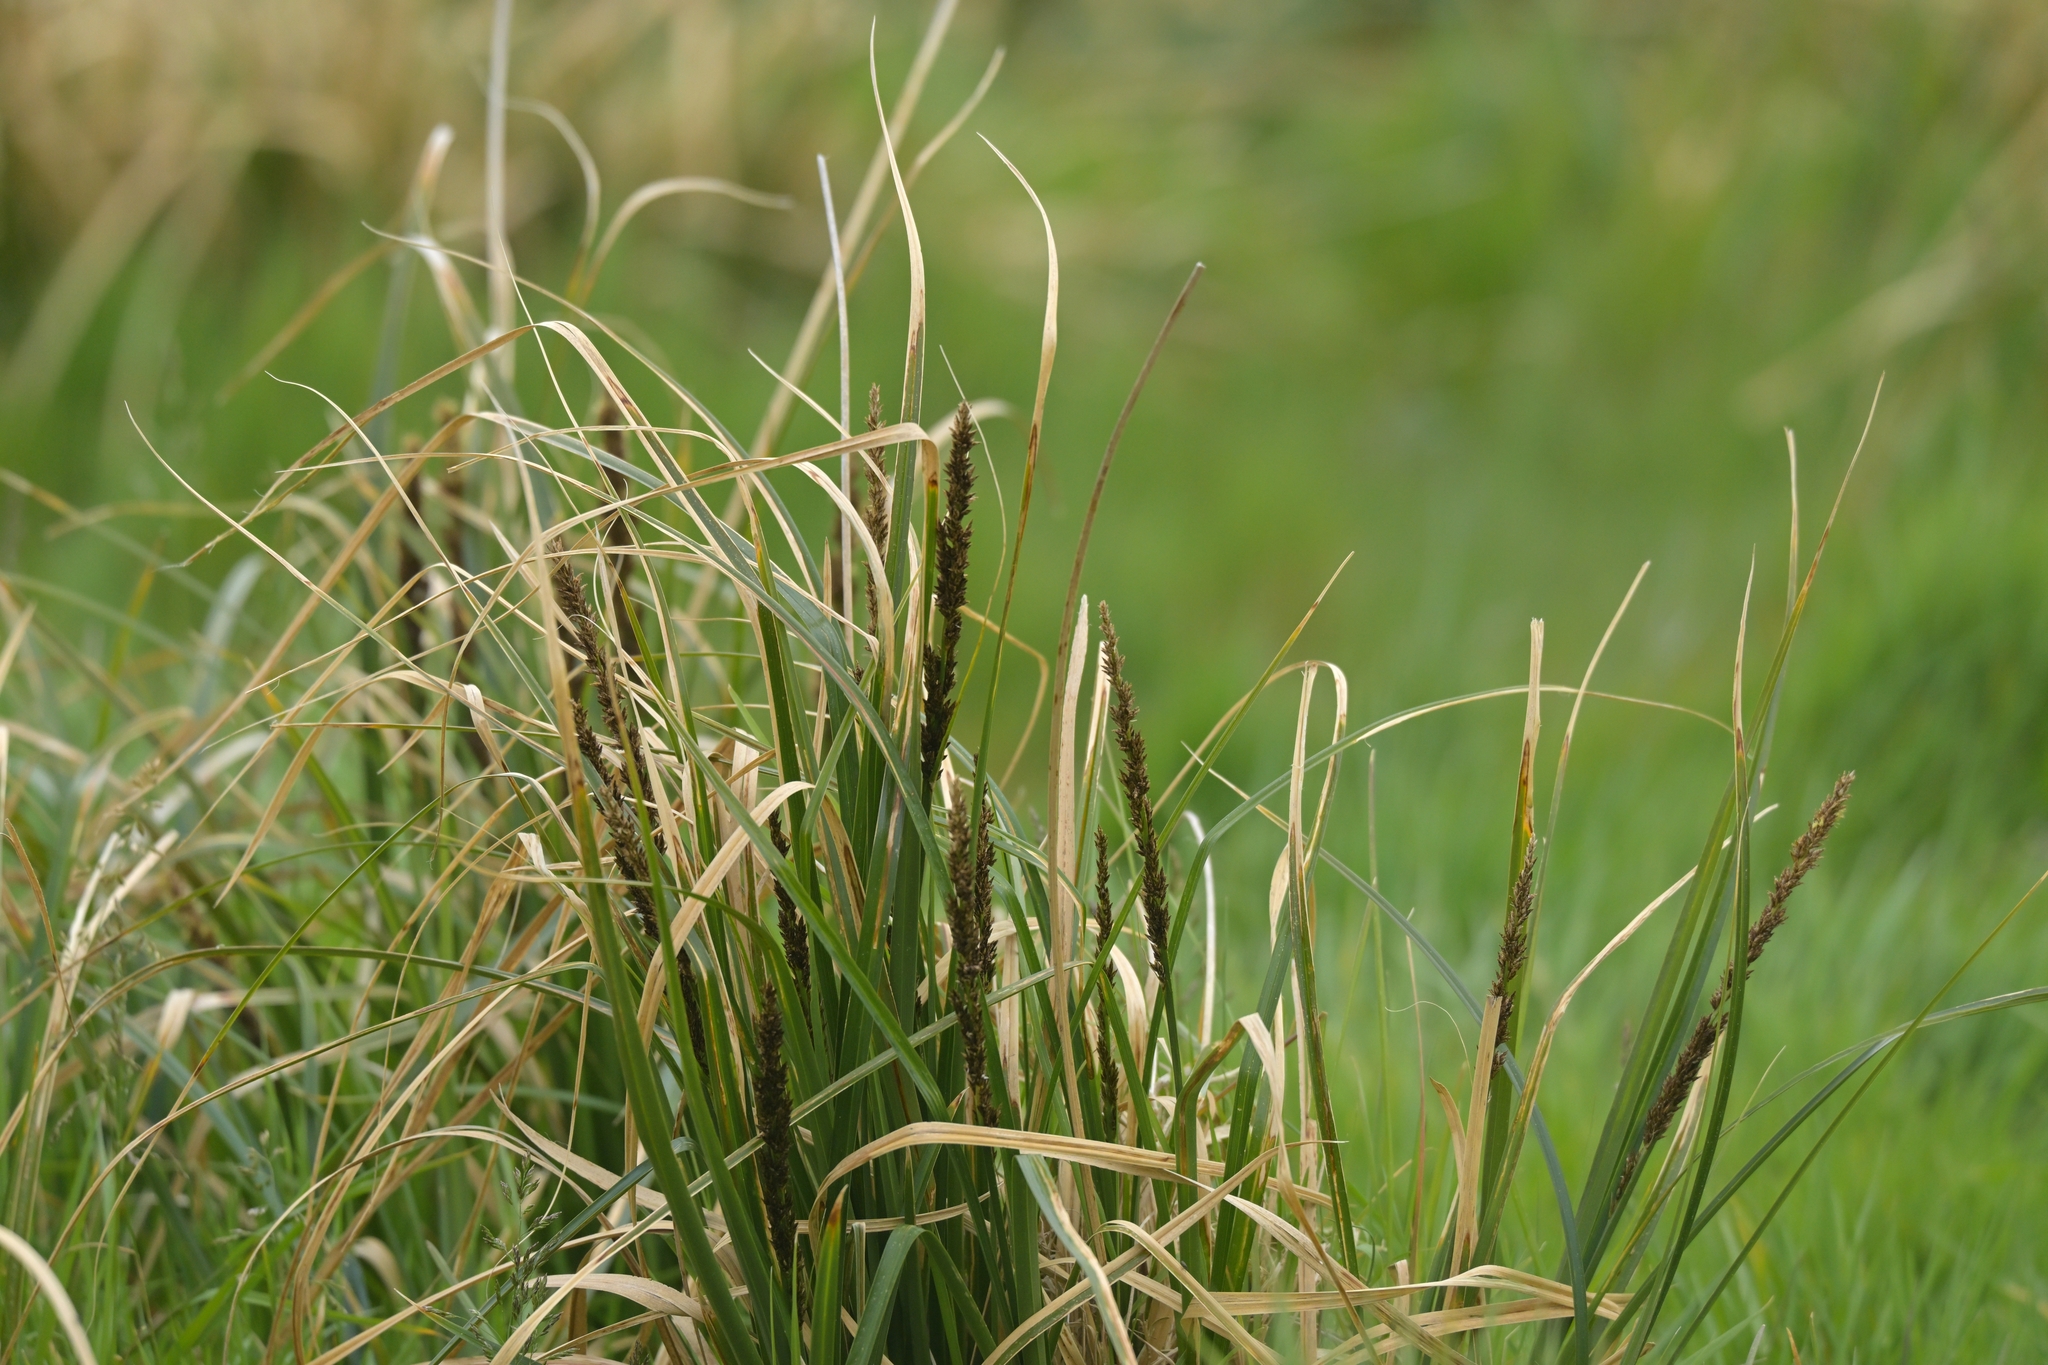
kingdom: Plantae
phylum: Tracheophyta
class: Liliopsida
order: Poales
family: Cyperaceae
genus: Carex
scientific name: Carex appressa
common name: Tussock sedge
